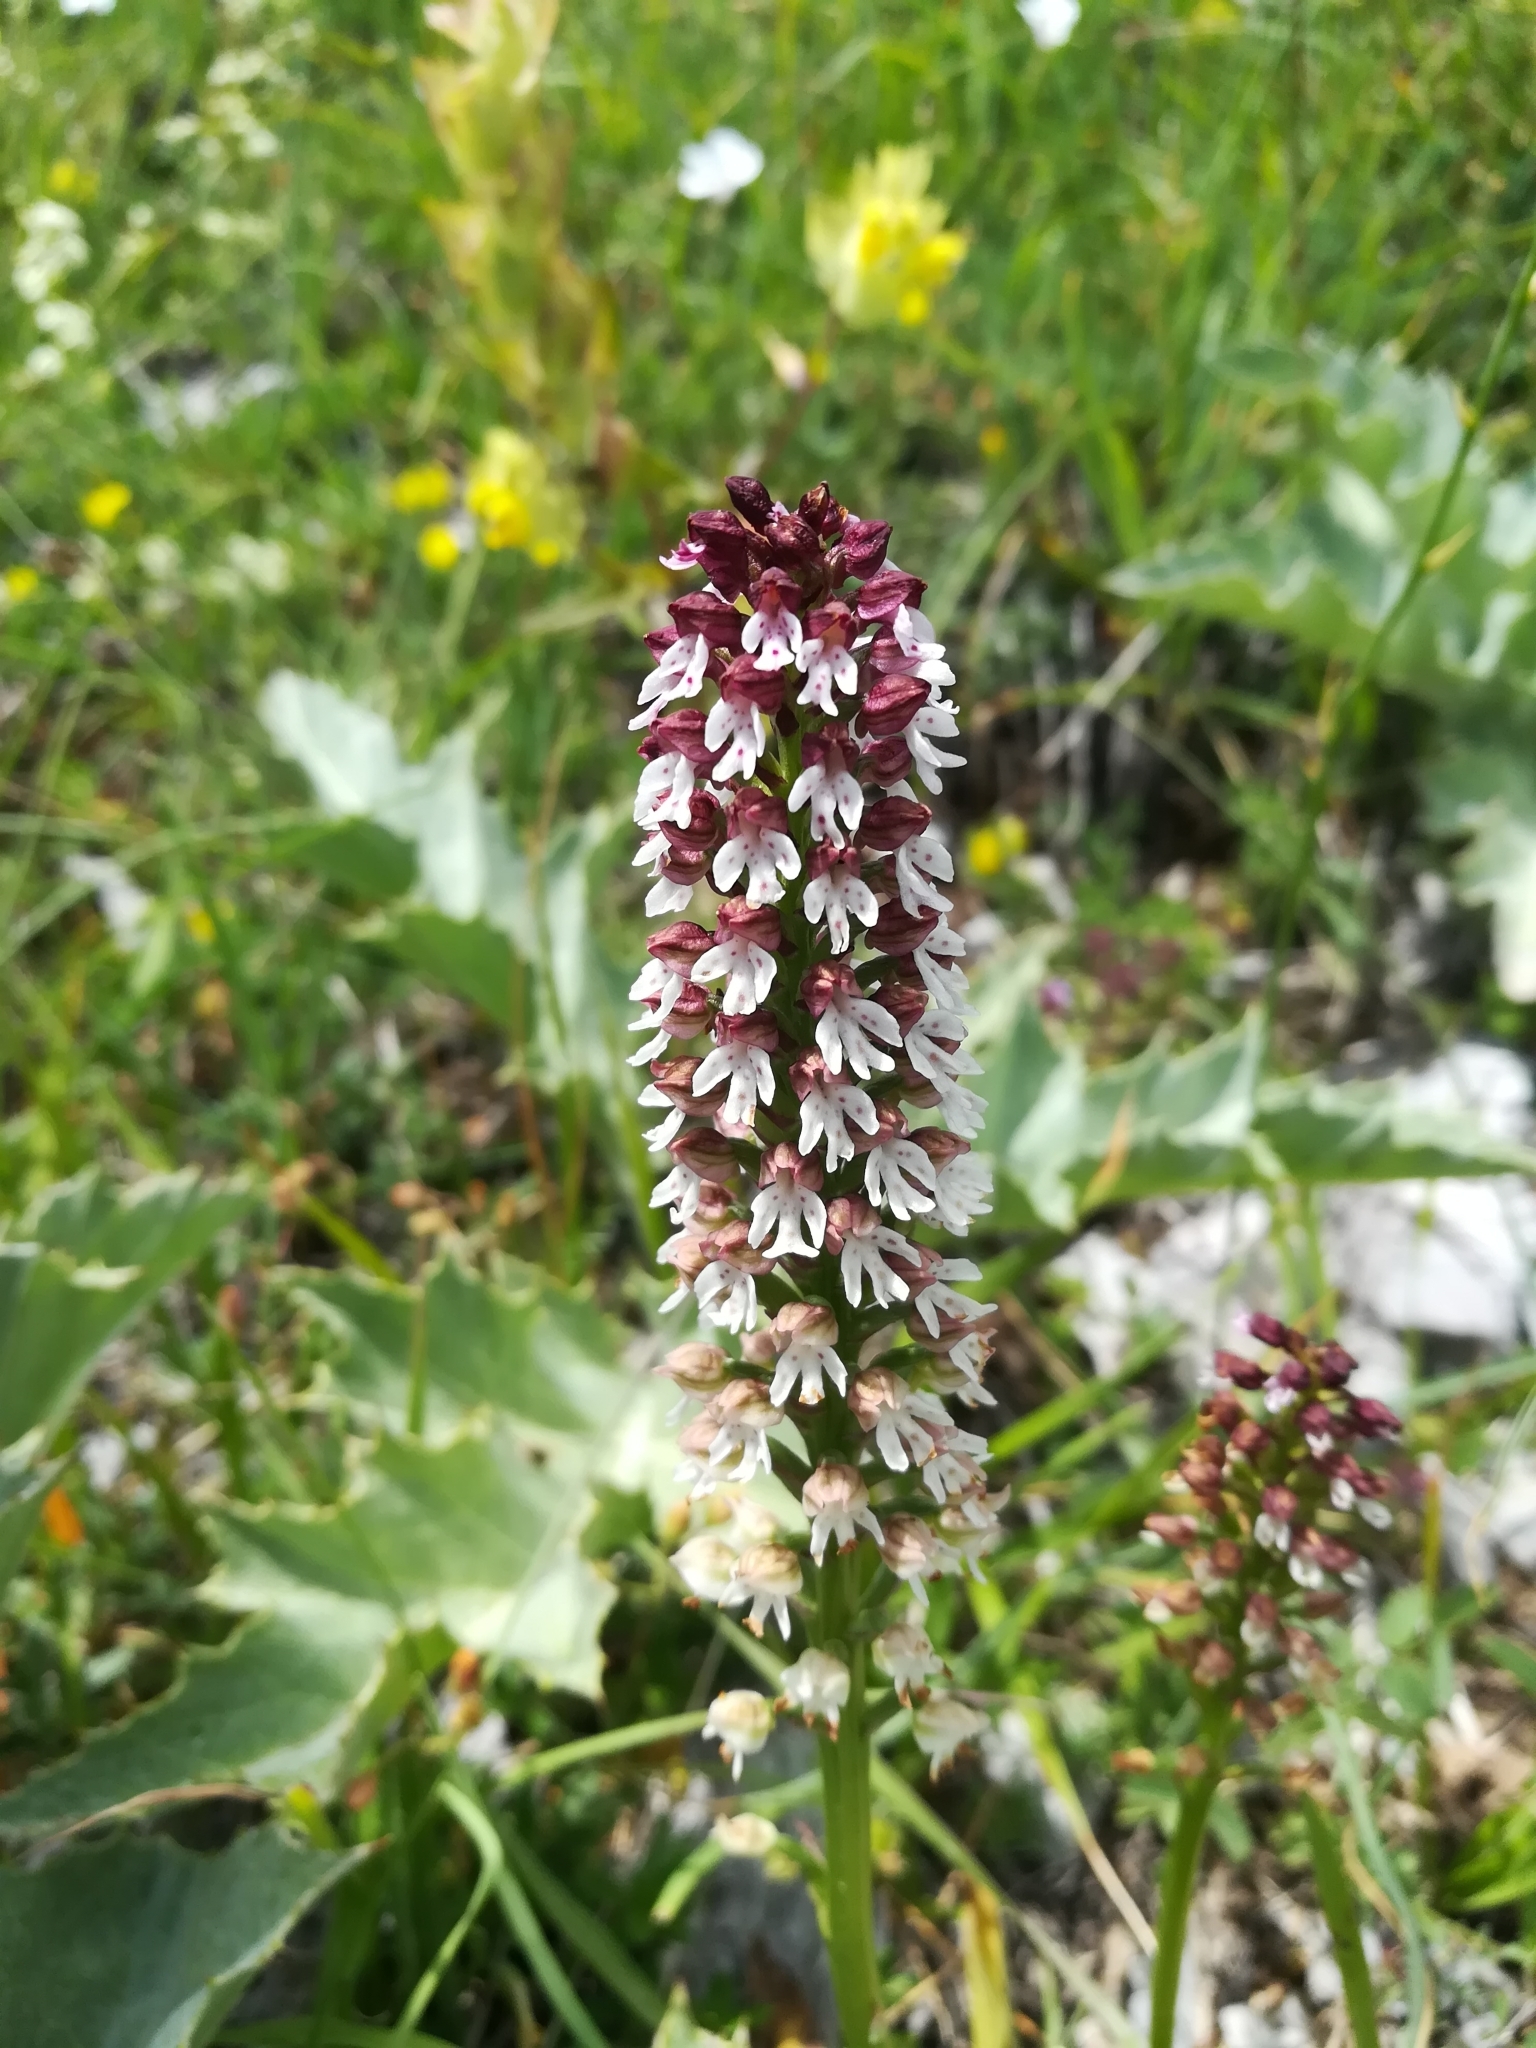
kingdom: Plantae
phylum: Tracheophyta
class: Liliopsida
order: Asparagales
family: Orchidaceae
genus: Neotinea
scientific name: Neotinea ustulata
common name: Burnt orchid
